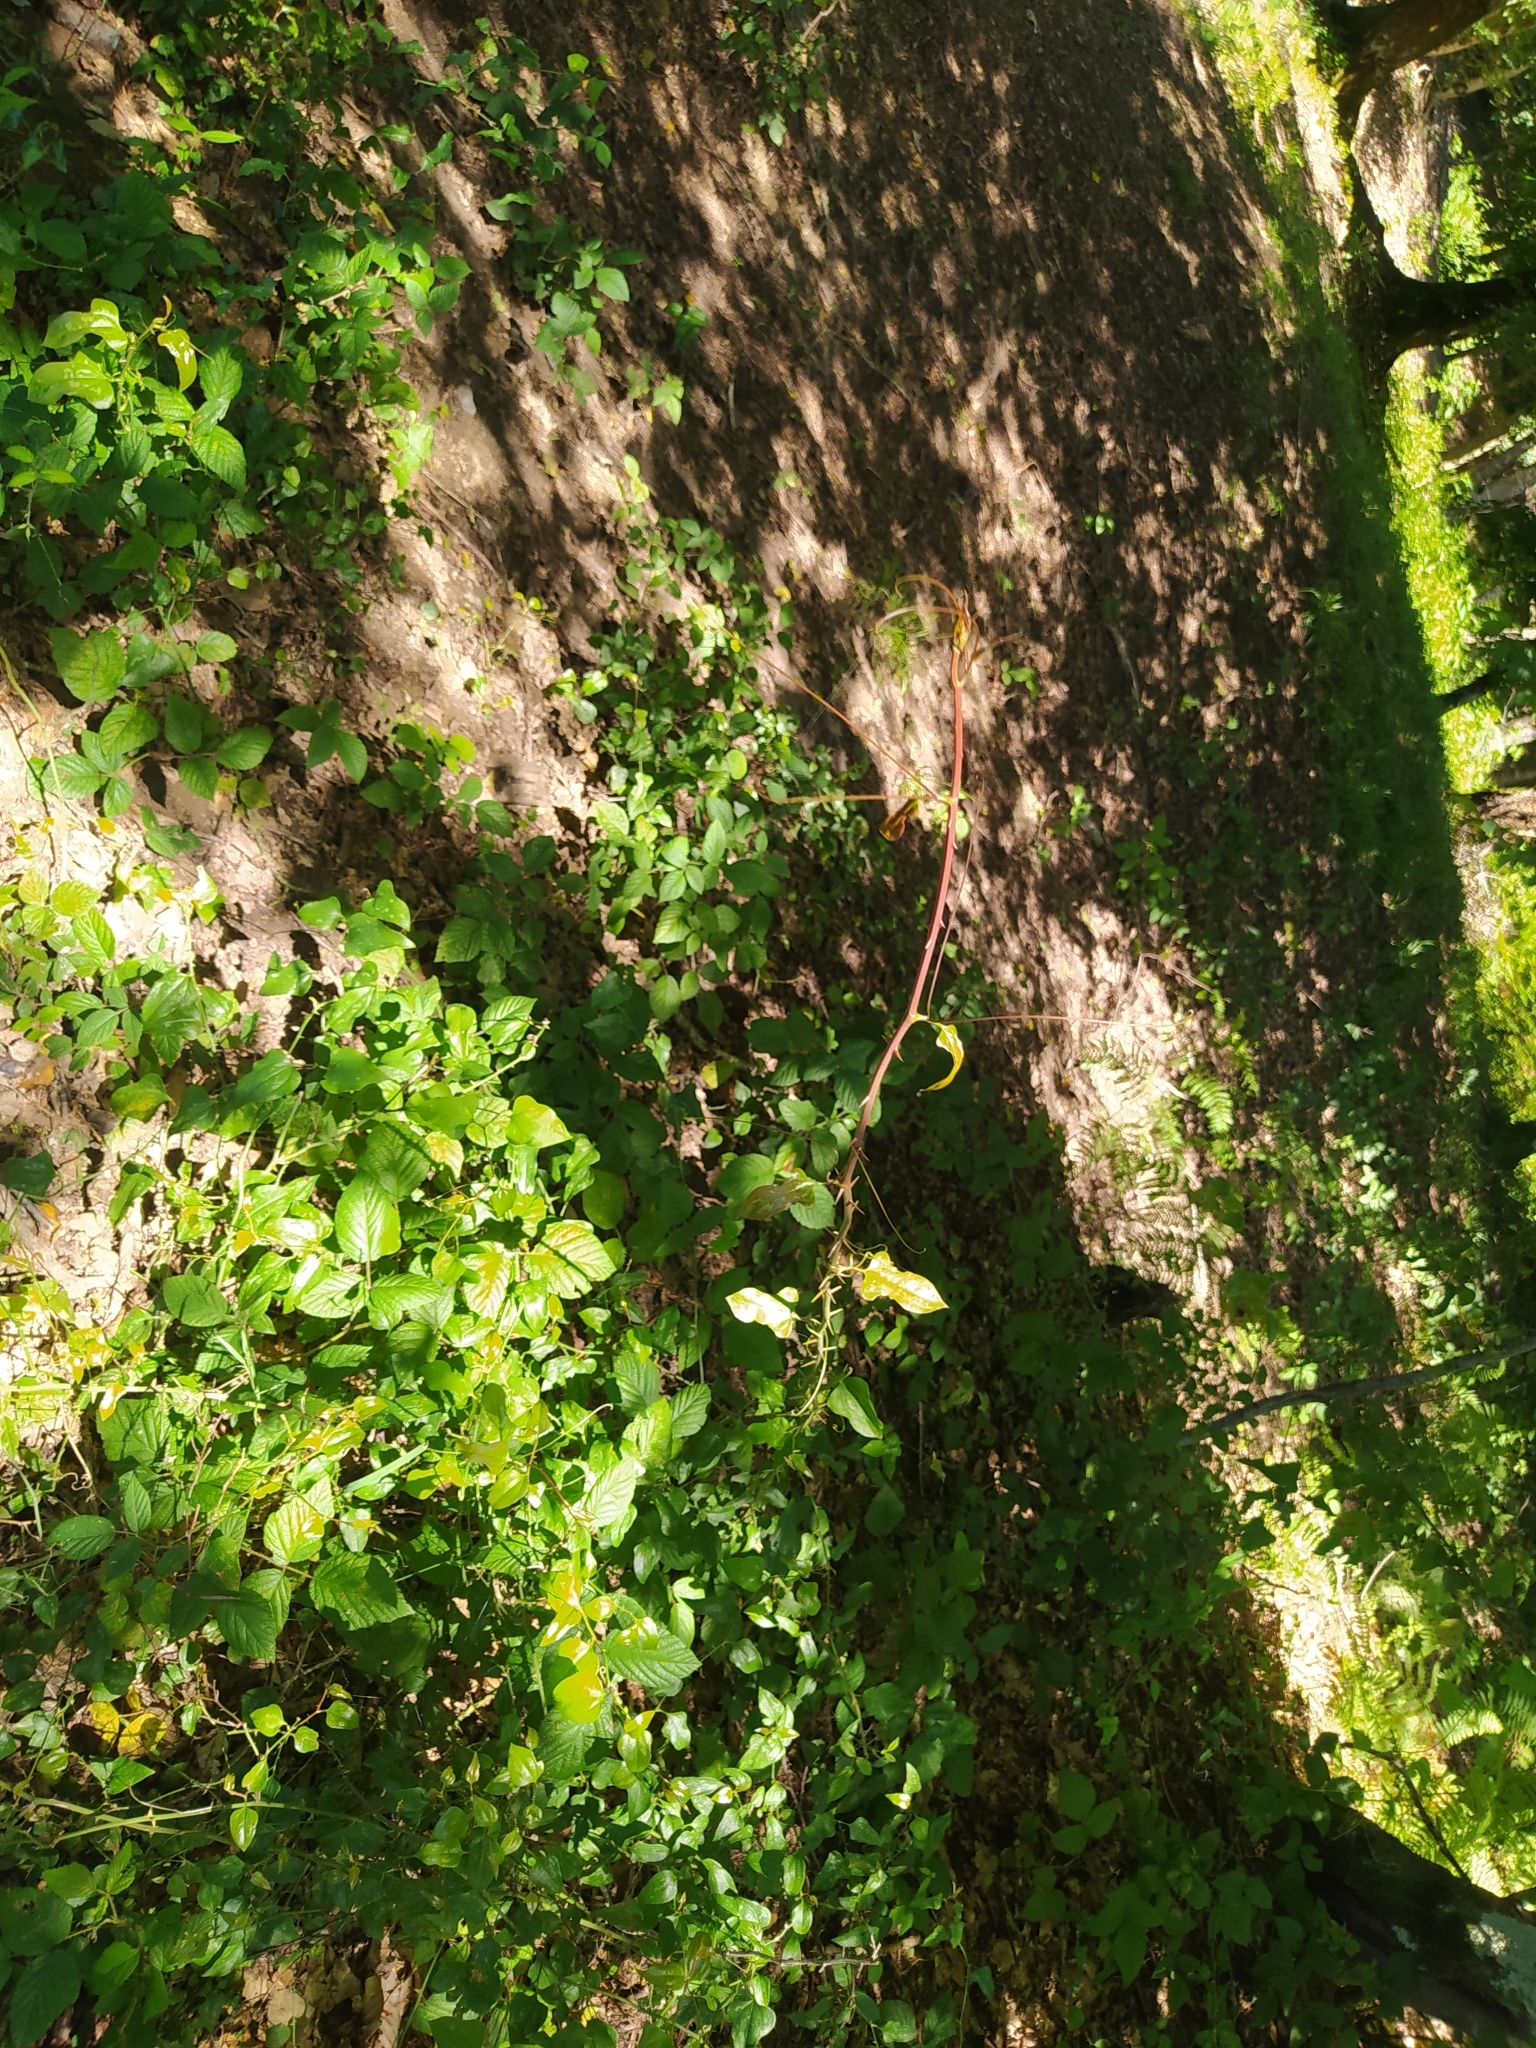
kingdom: Plantae
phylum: Tracheophyta
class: Liliopsida
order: Liliales
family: Smilacaceae
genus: Smilax
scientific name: Smilax excelsa
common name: Larger smilax
